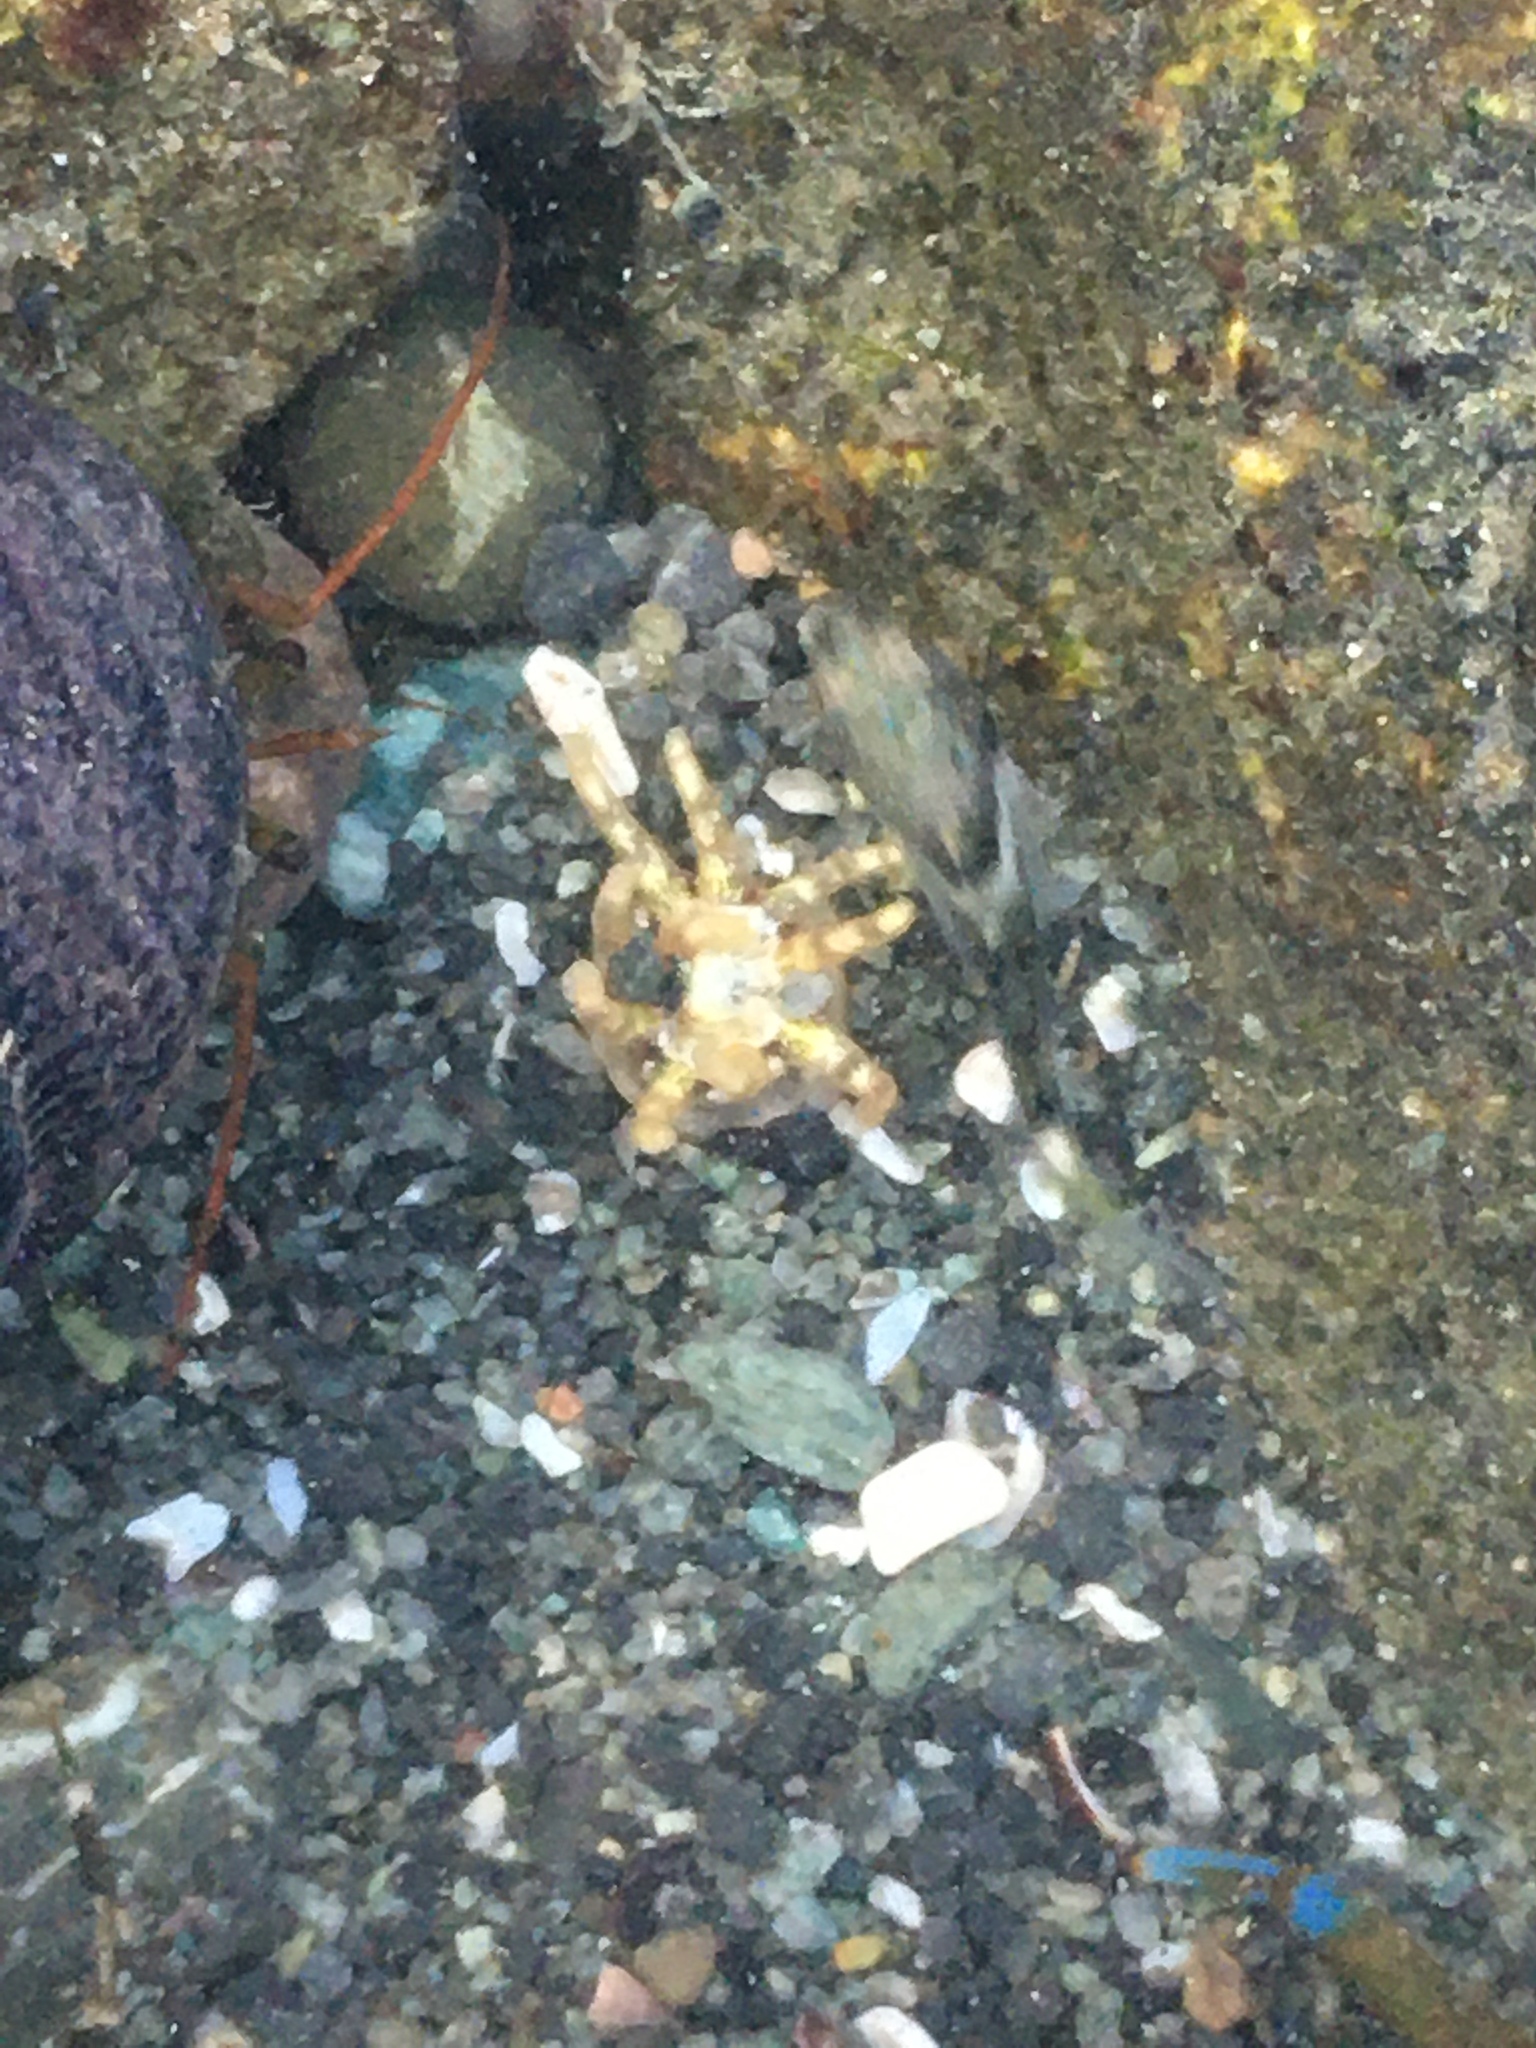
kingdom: Animalia
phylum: Cnidaria
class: Anthozoa
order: Actiniaria
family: Halcampidae
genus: Halcampa
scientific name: Halcampa decemtentaculata
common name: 10-tentacle burrowing anemone
